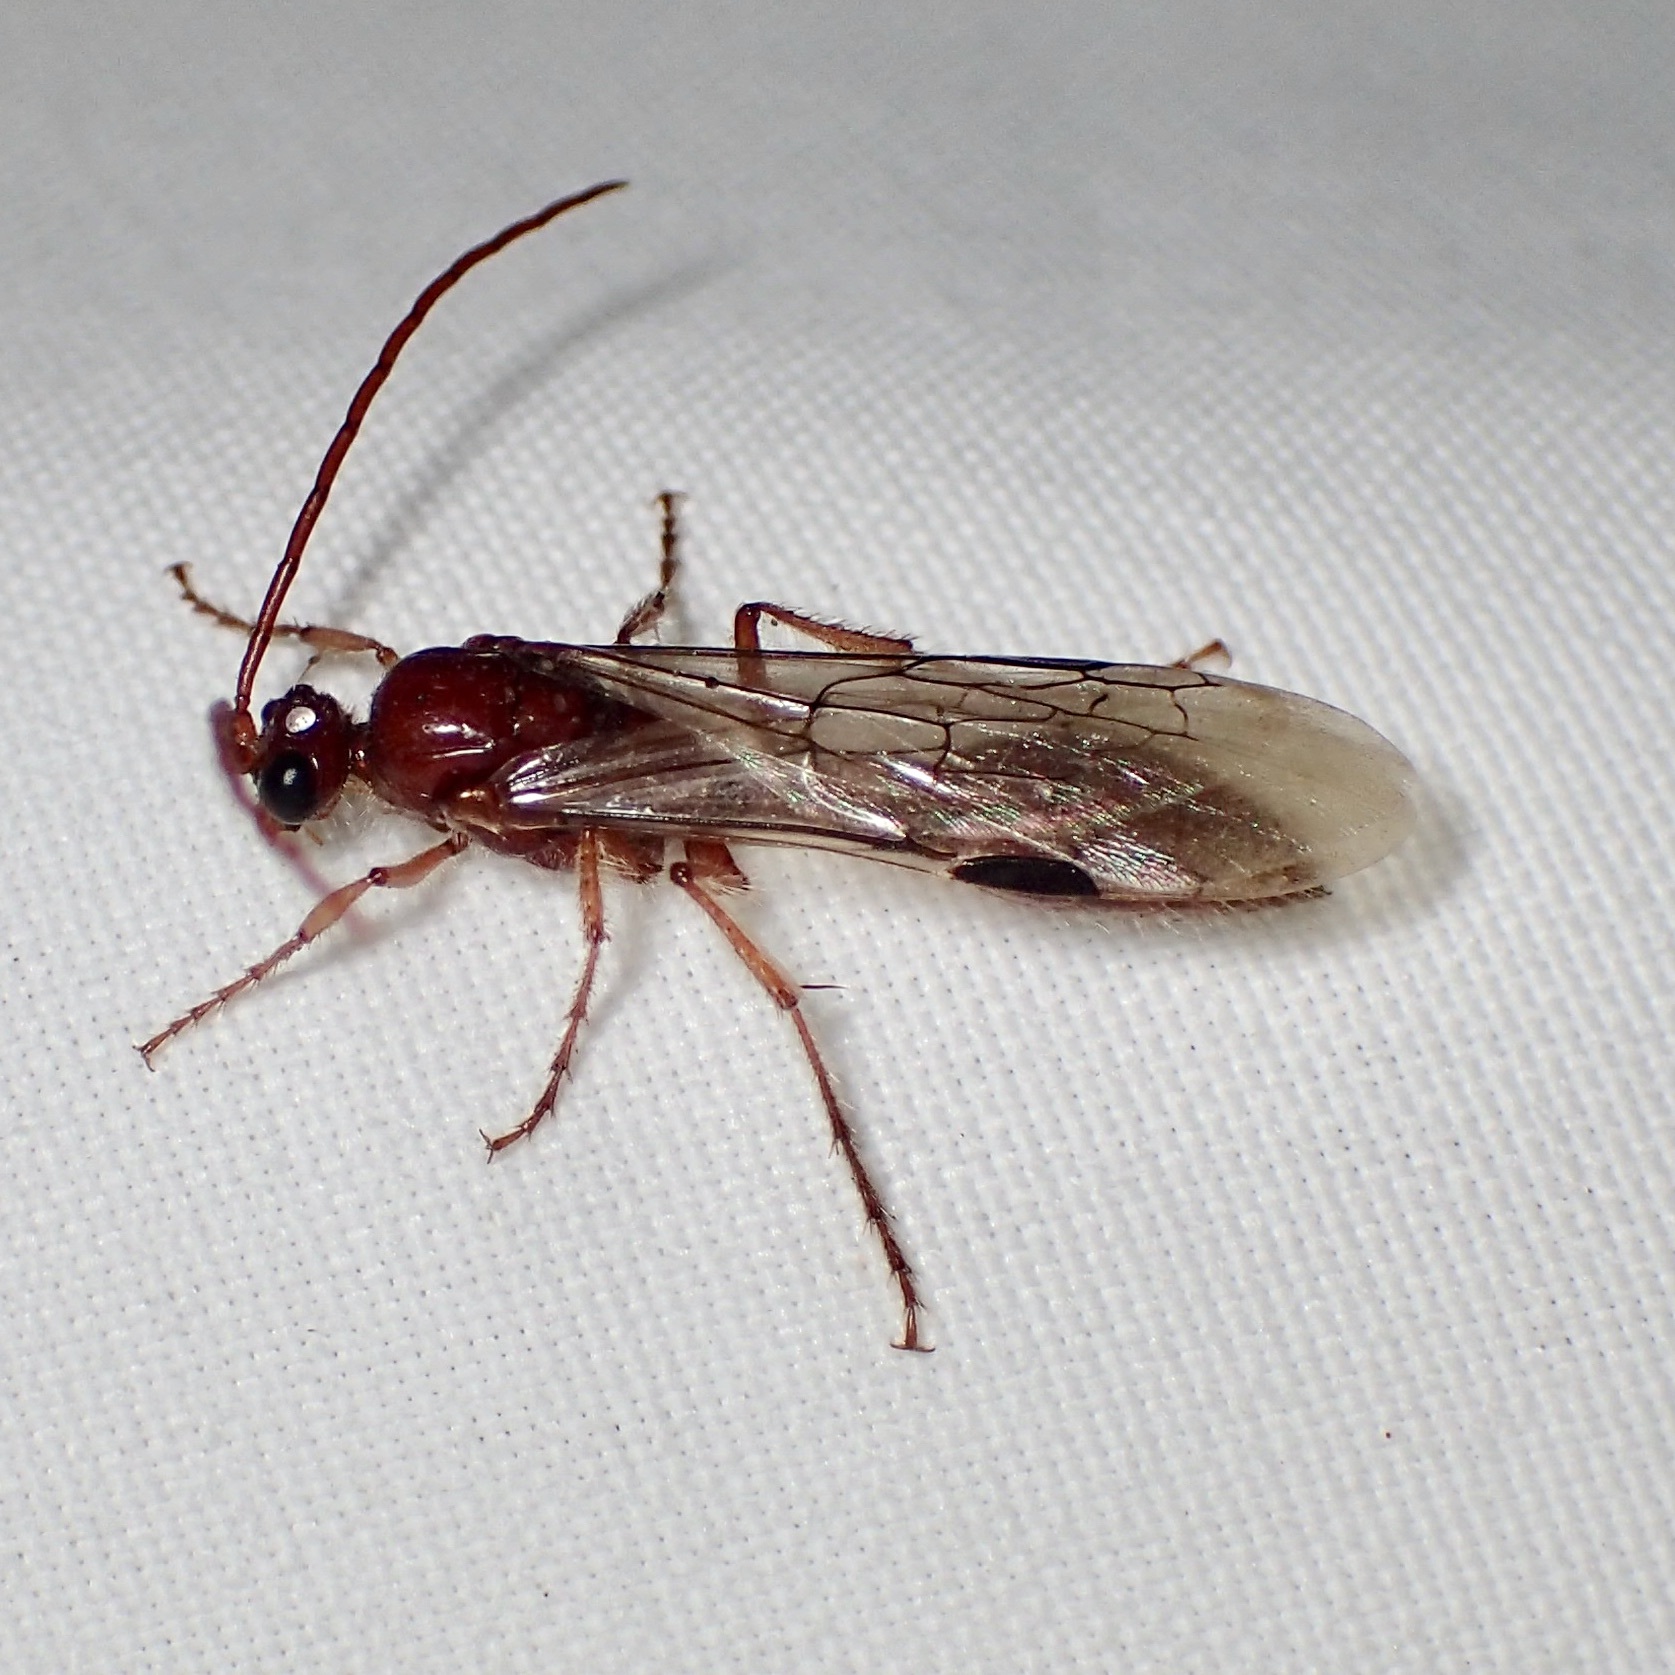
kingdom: Animalia
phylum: Arthropoda
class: Insecta
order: Hymenoptera
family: Tiphiidae
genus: Acanthetropis
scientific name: Acanthetropis noctivaga
